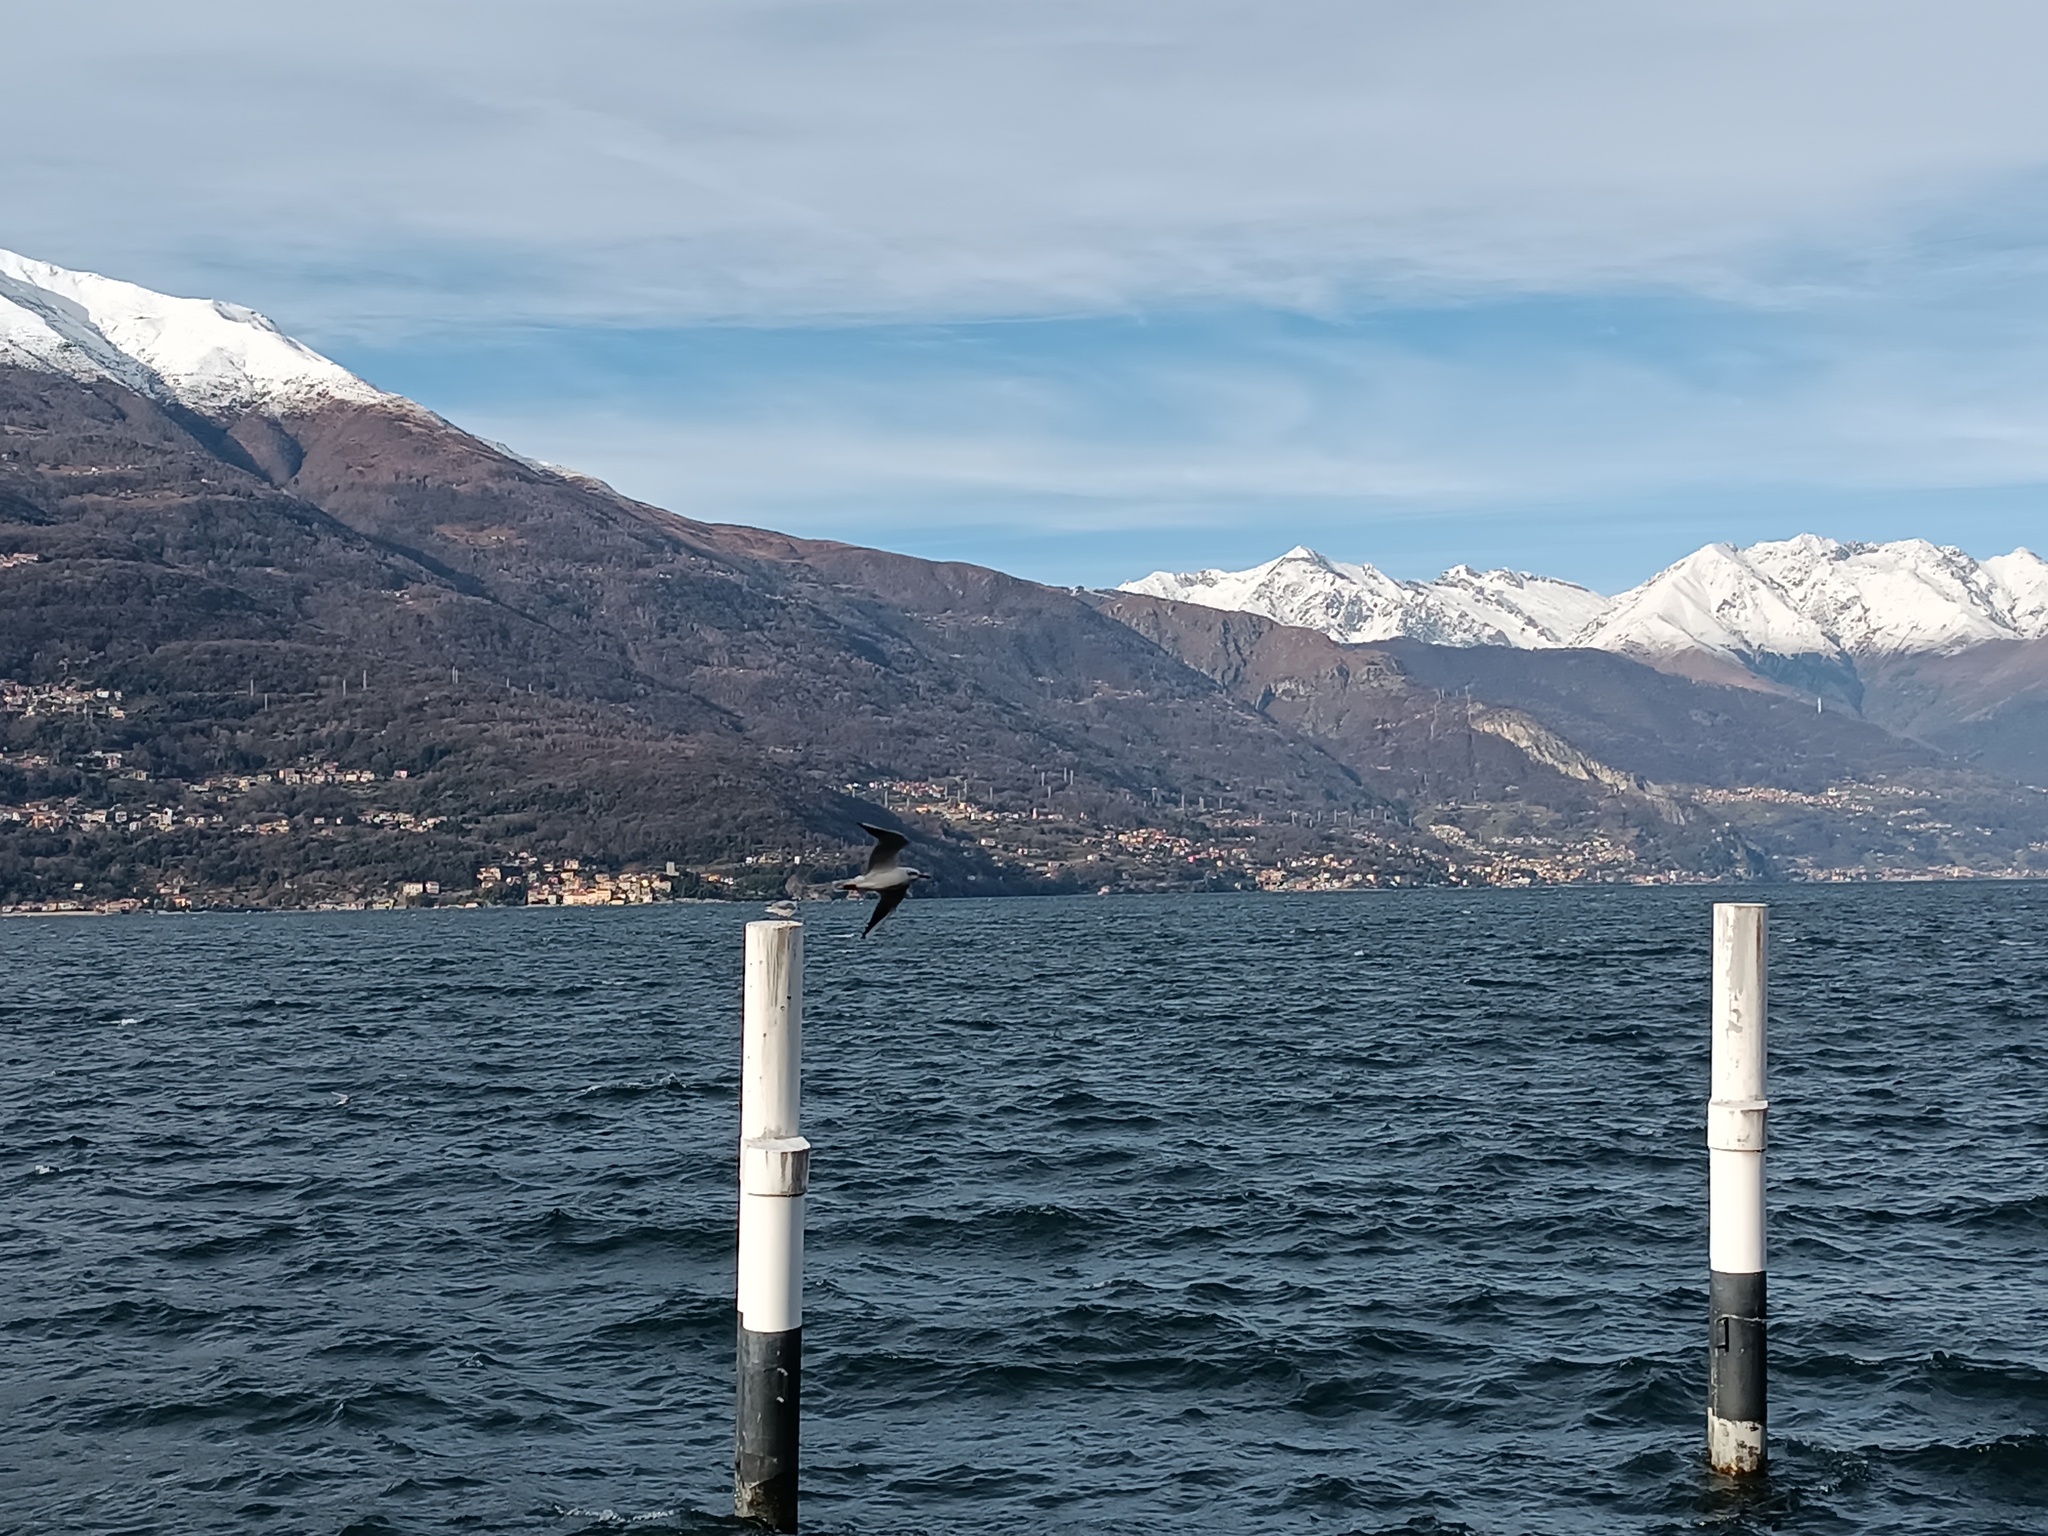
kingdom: Animalia
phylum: Chordata
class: Aves
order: Charadriiformes
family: Laridae
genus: Chroicocephalus
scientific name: Chroicocephalus ridibundus
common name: Black-headed gull
